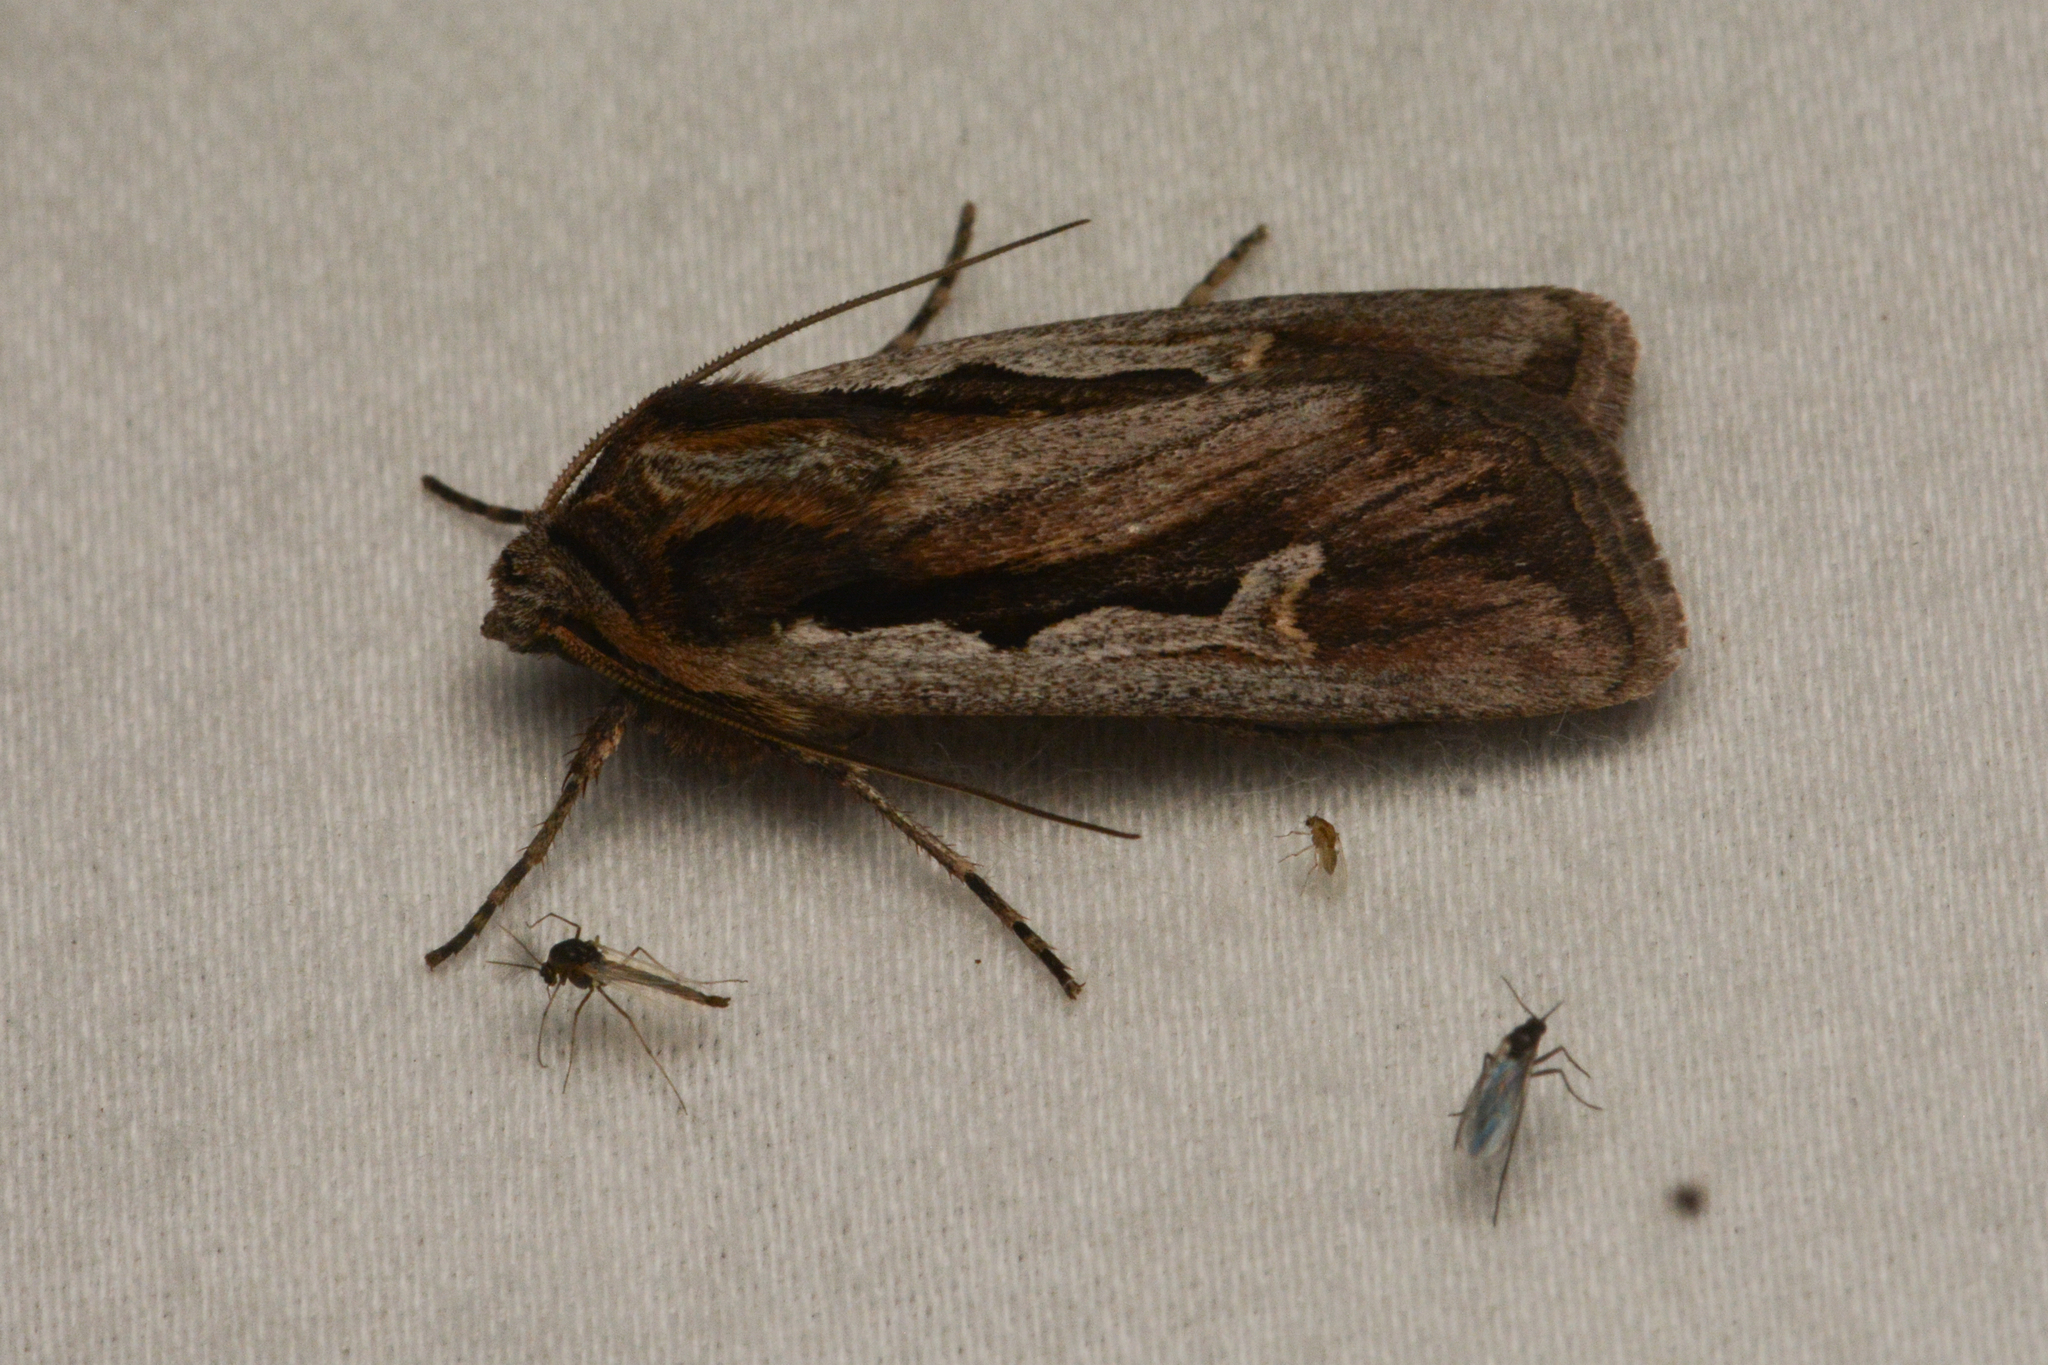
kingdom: Animalia
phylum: Arthropoda
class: Insecta
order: Lepidoptera
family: Noctuidae
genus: Euxoa
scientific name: Euxoa hollemani
